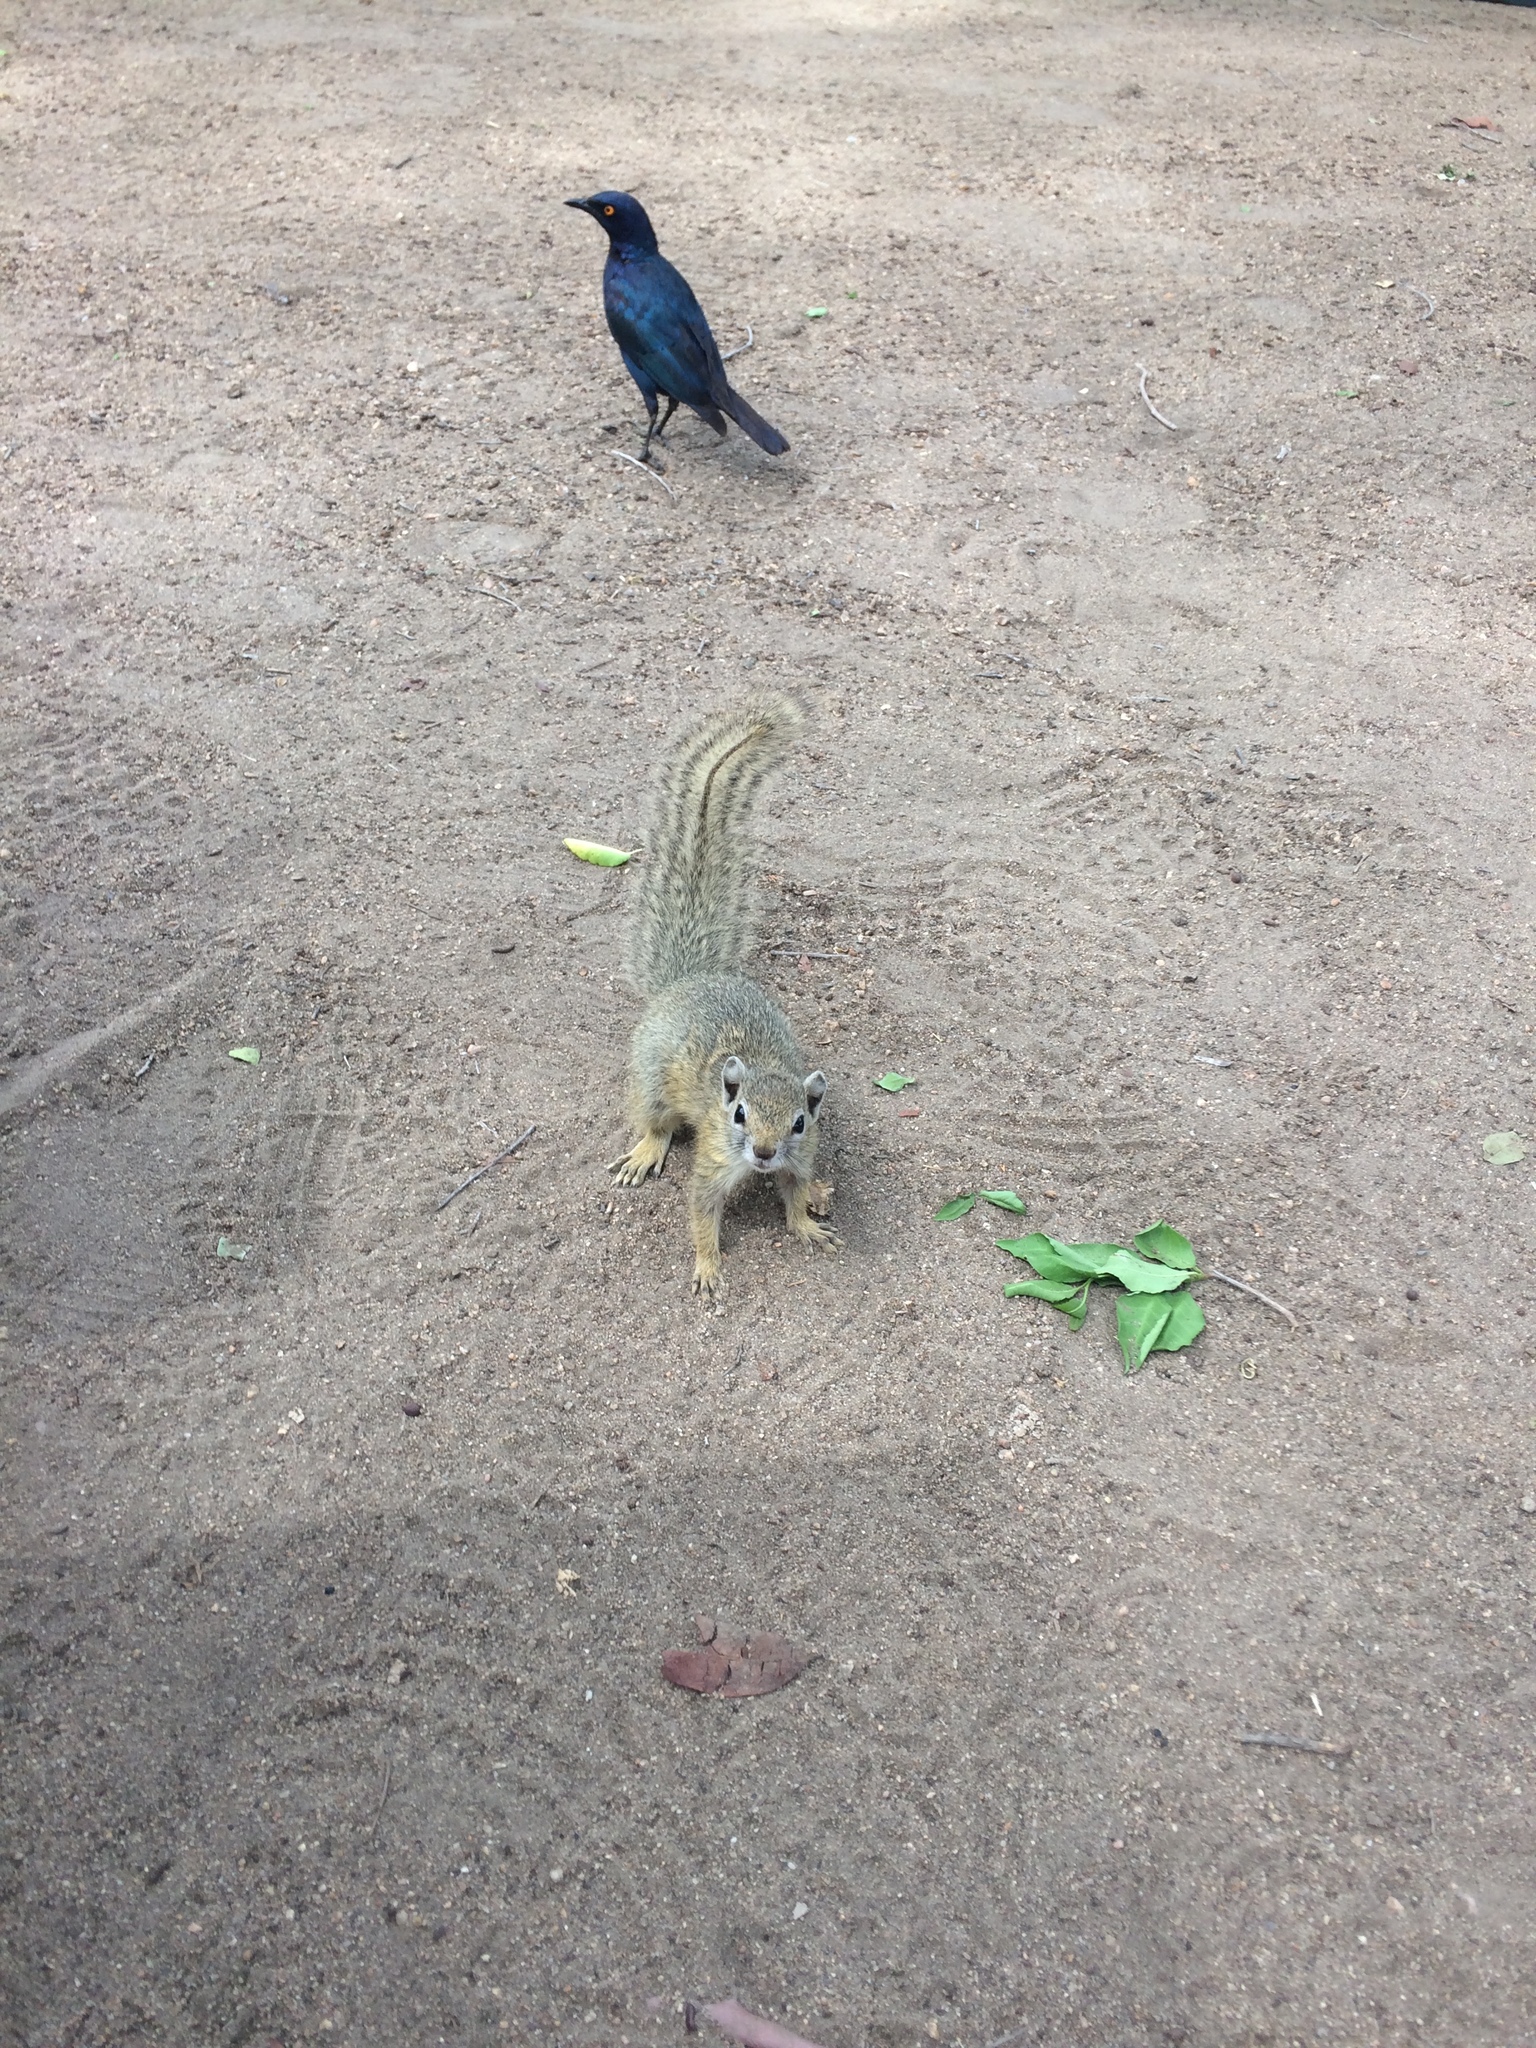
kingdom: Animalia
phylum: Chordata
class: Mammalia
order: Rodentia
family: Sciuridae
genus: Paraxerus
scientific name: Paraxerus cepapi
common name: Smith's bush squirrel
